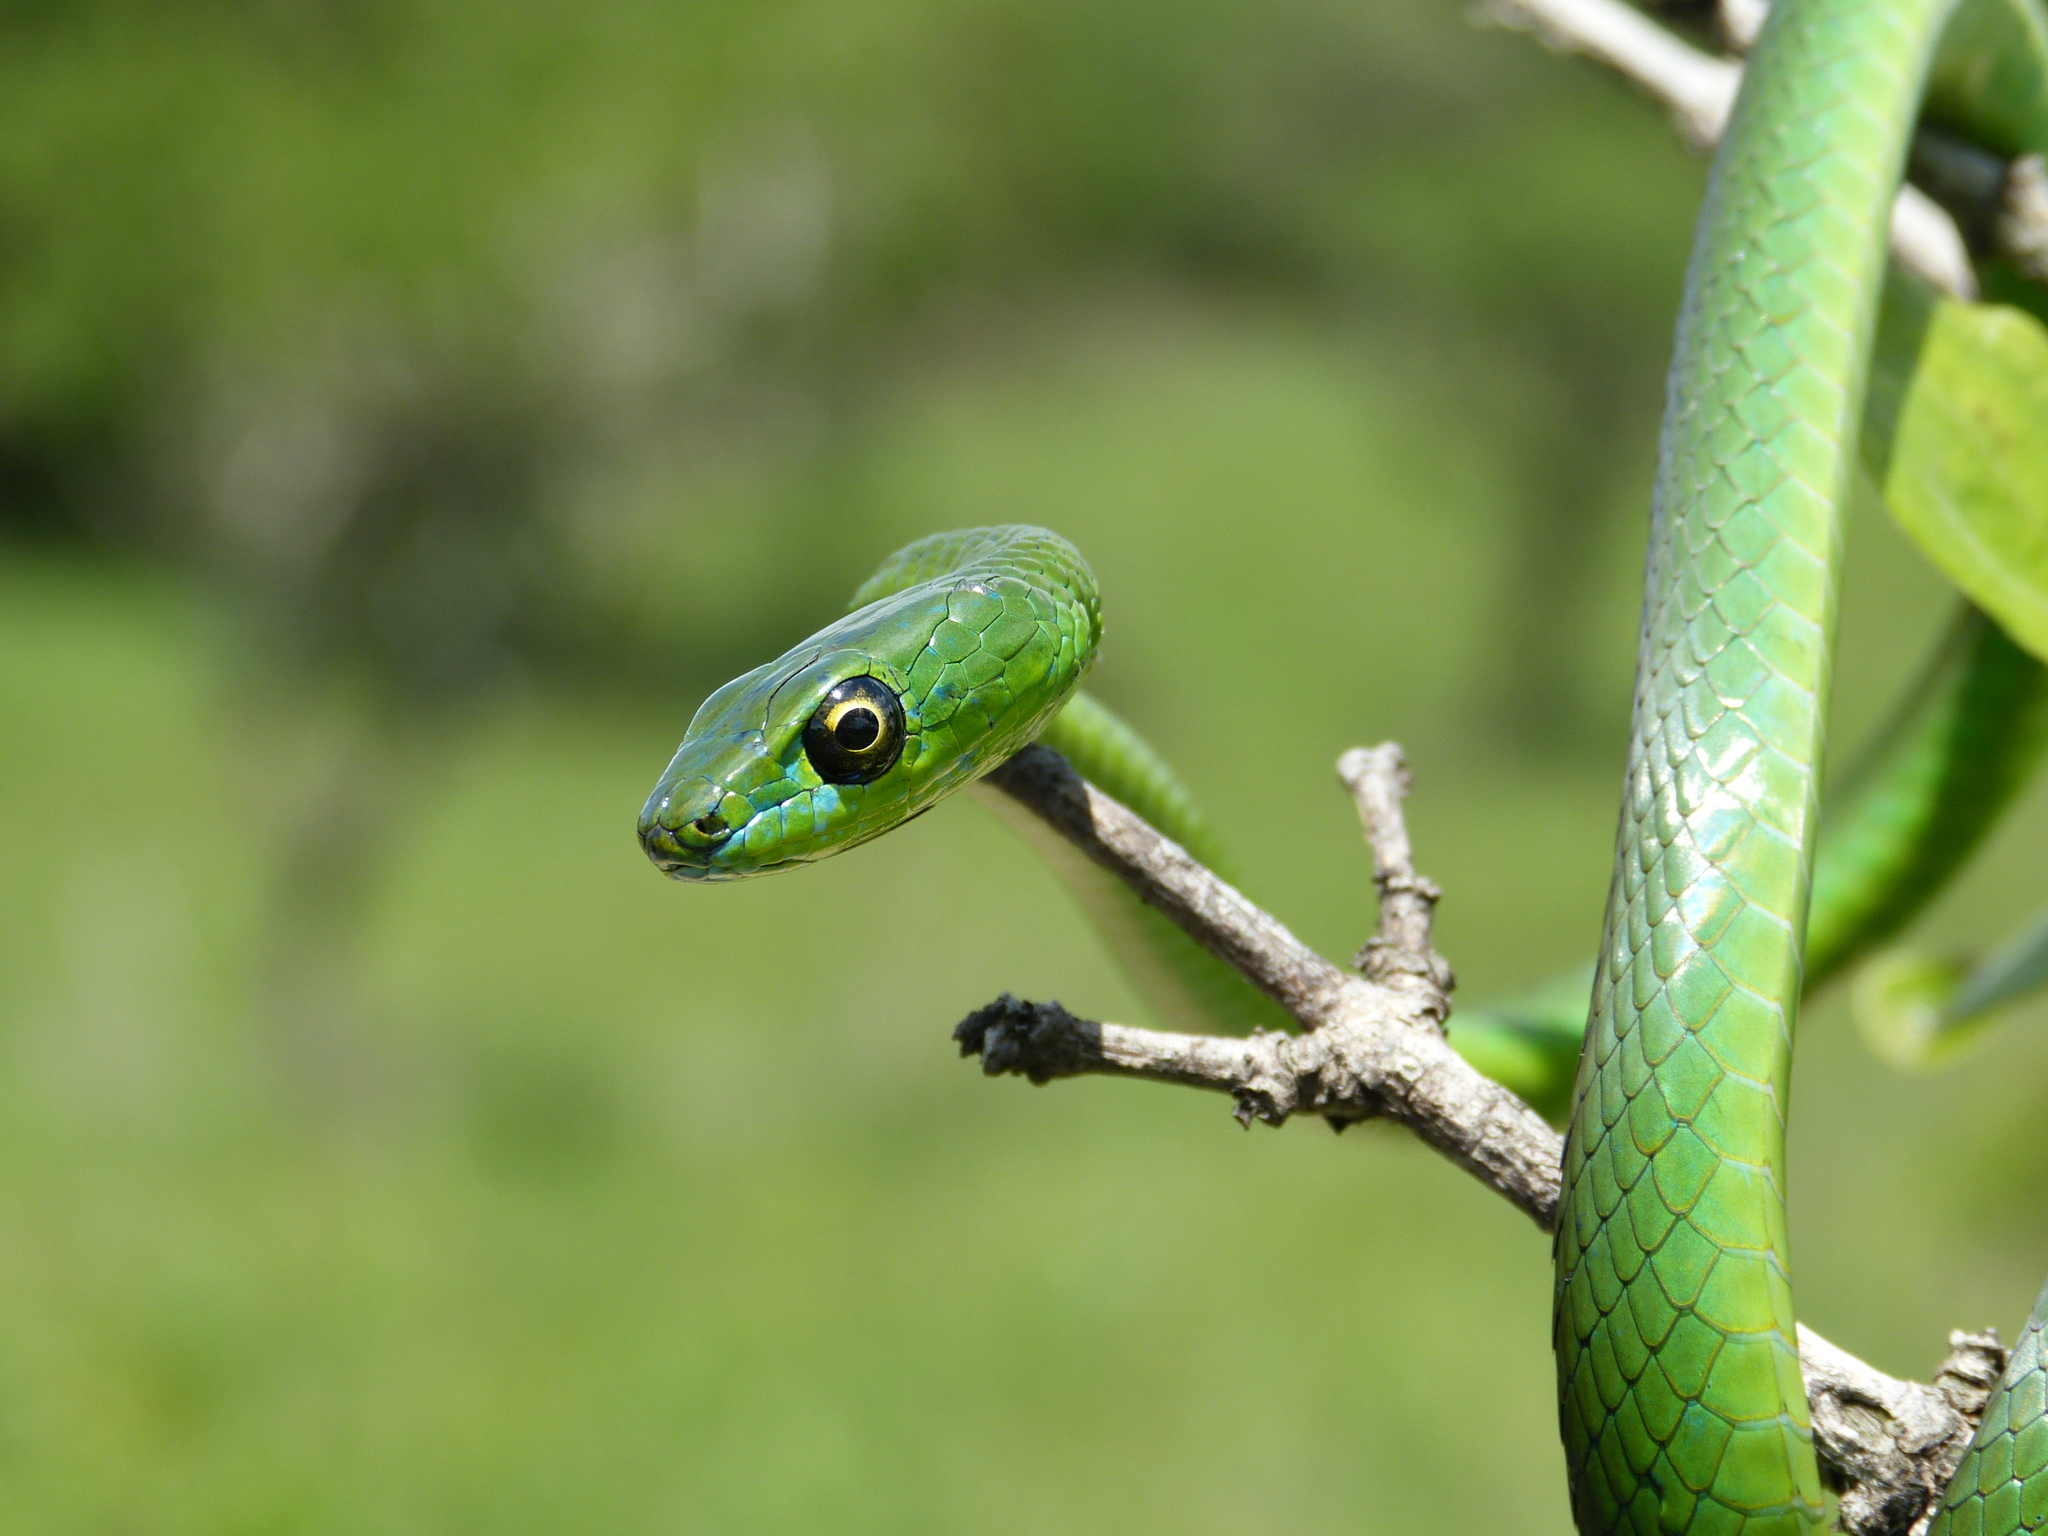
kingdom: Animalia
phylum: Chordata
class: Squamata
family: Colubridae
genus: Philothamnus
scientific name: Philothamnus natalensis
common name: Eastern natal green snake
